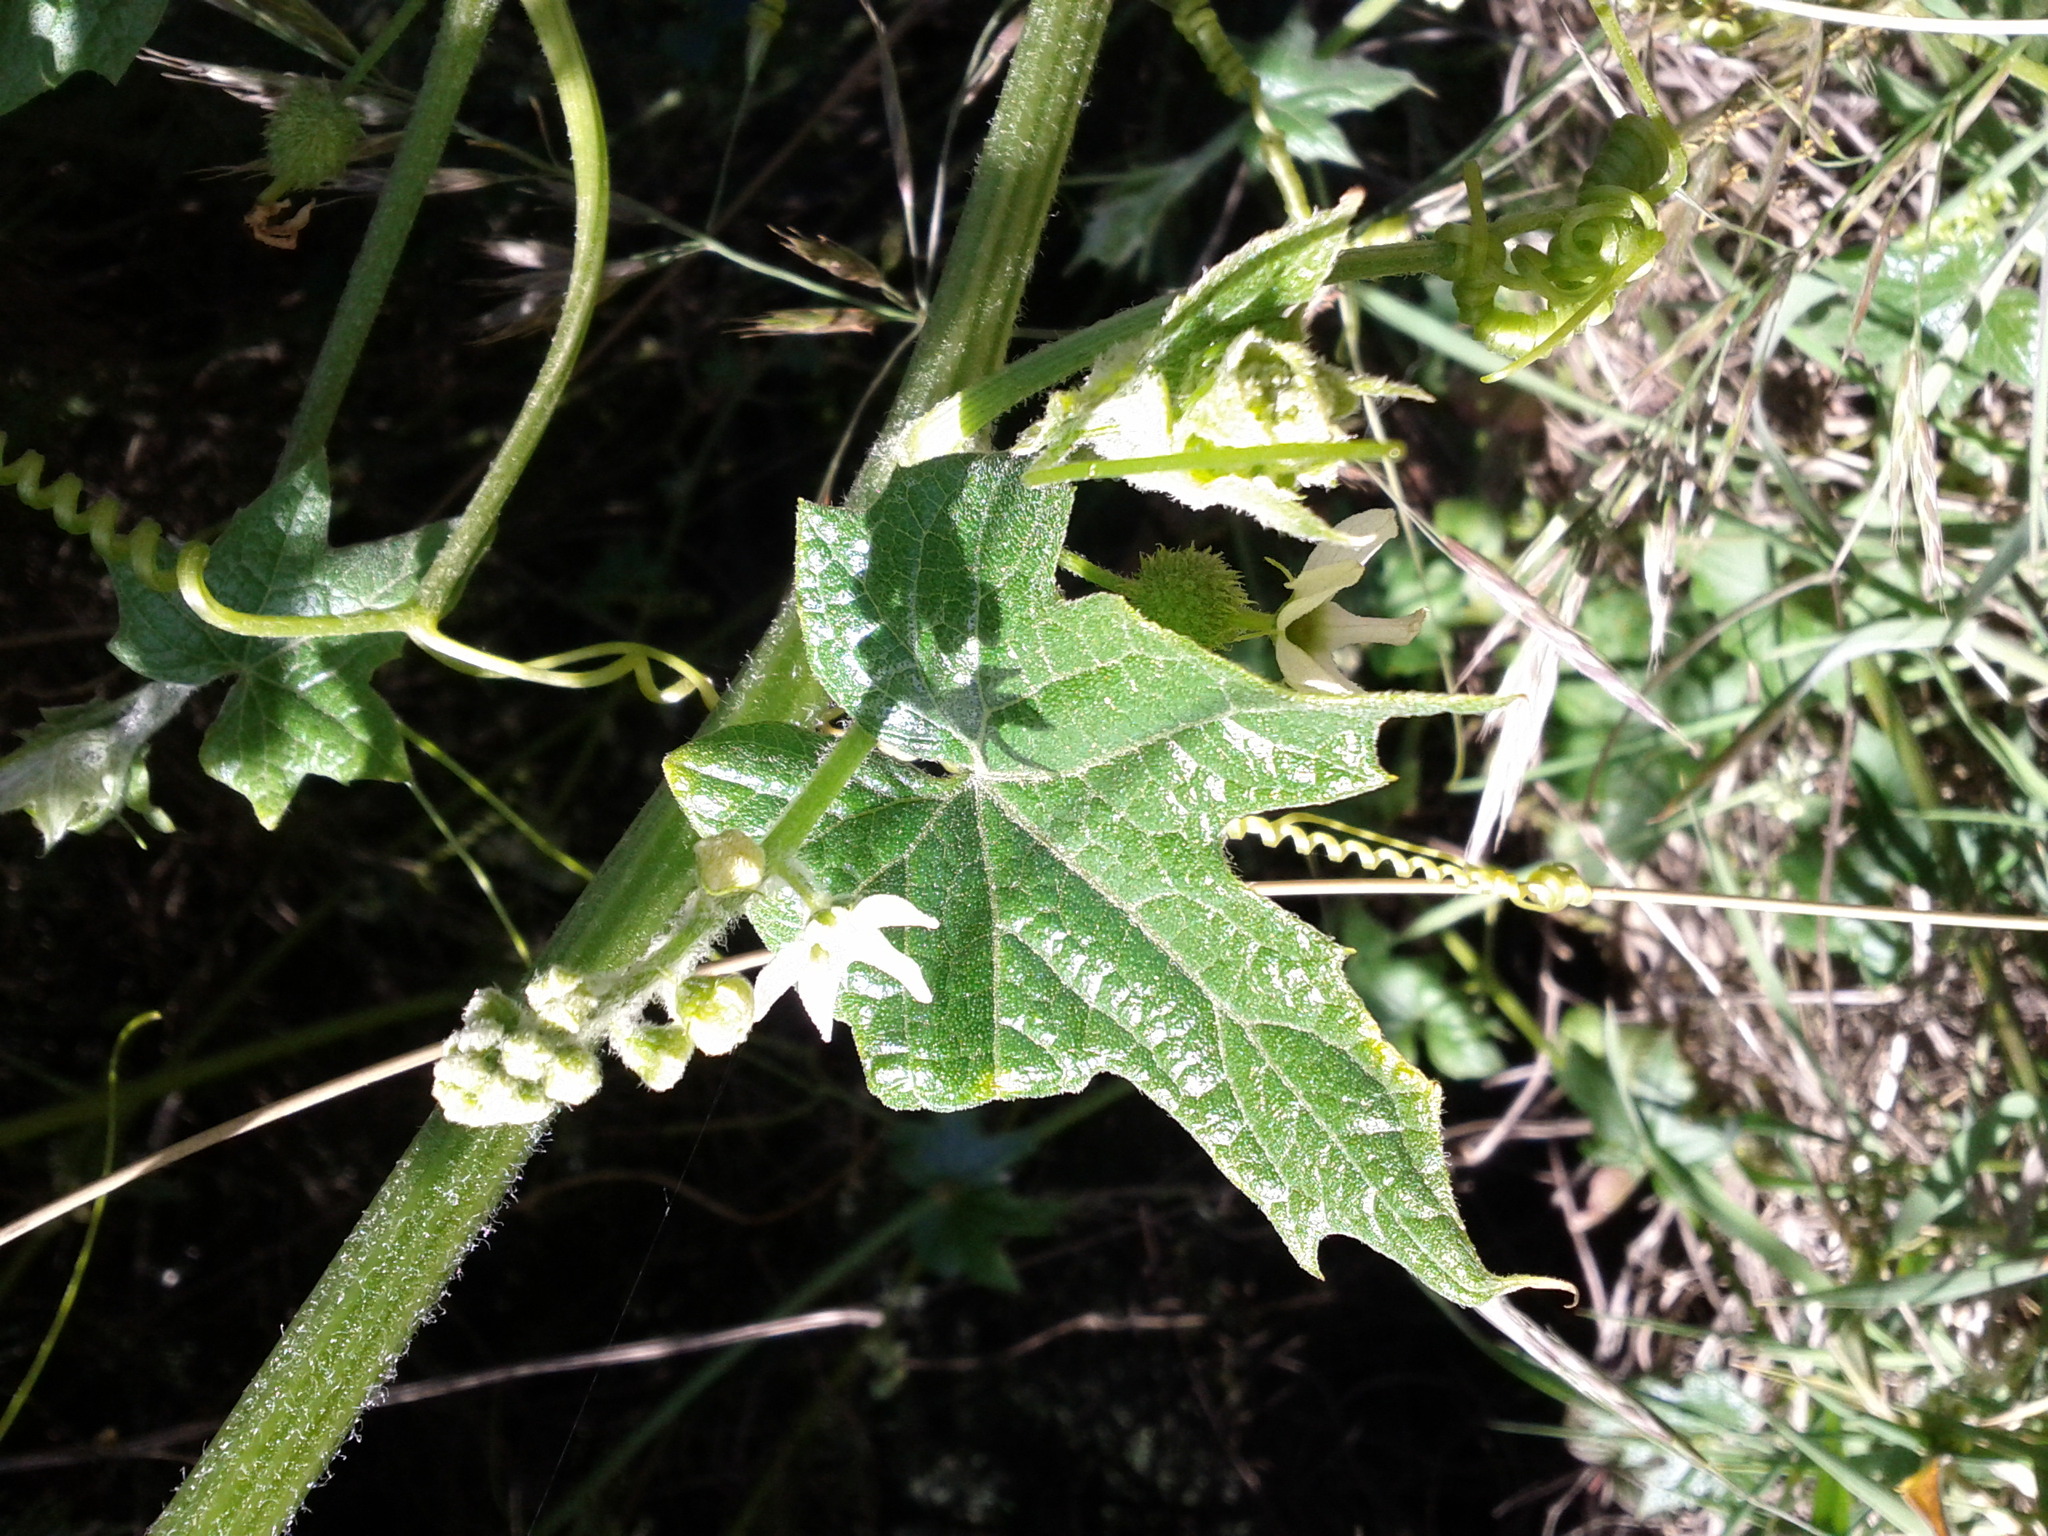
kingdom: Plantae
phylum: Tracheophyta
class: Magnoliopsida
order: Cucurbitales
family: Cucurbitaceae
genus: Marah
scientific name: Marah fabacea
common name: California manroot
